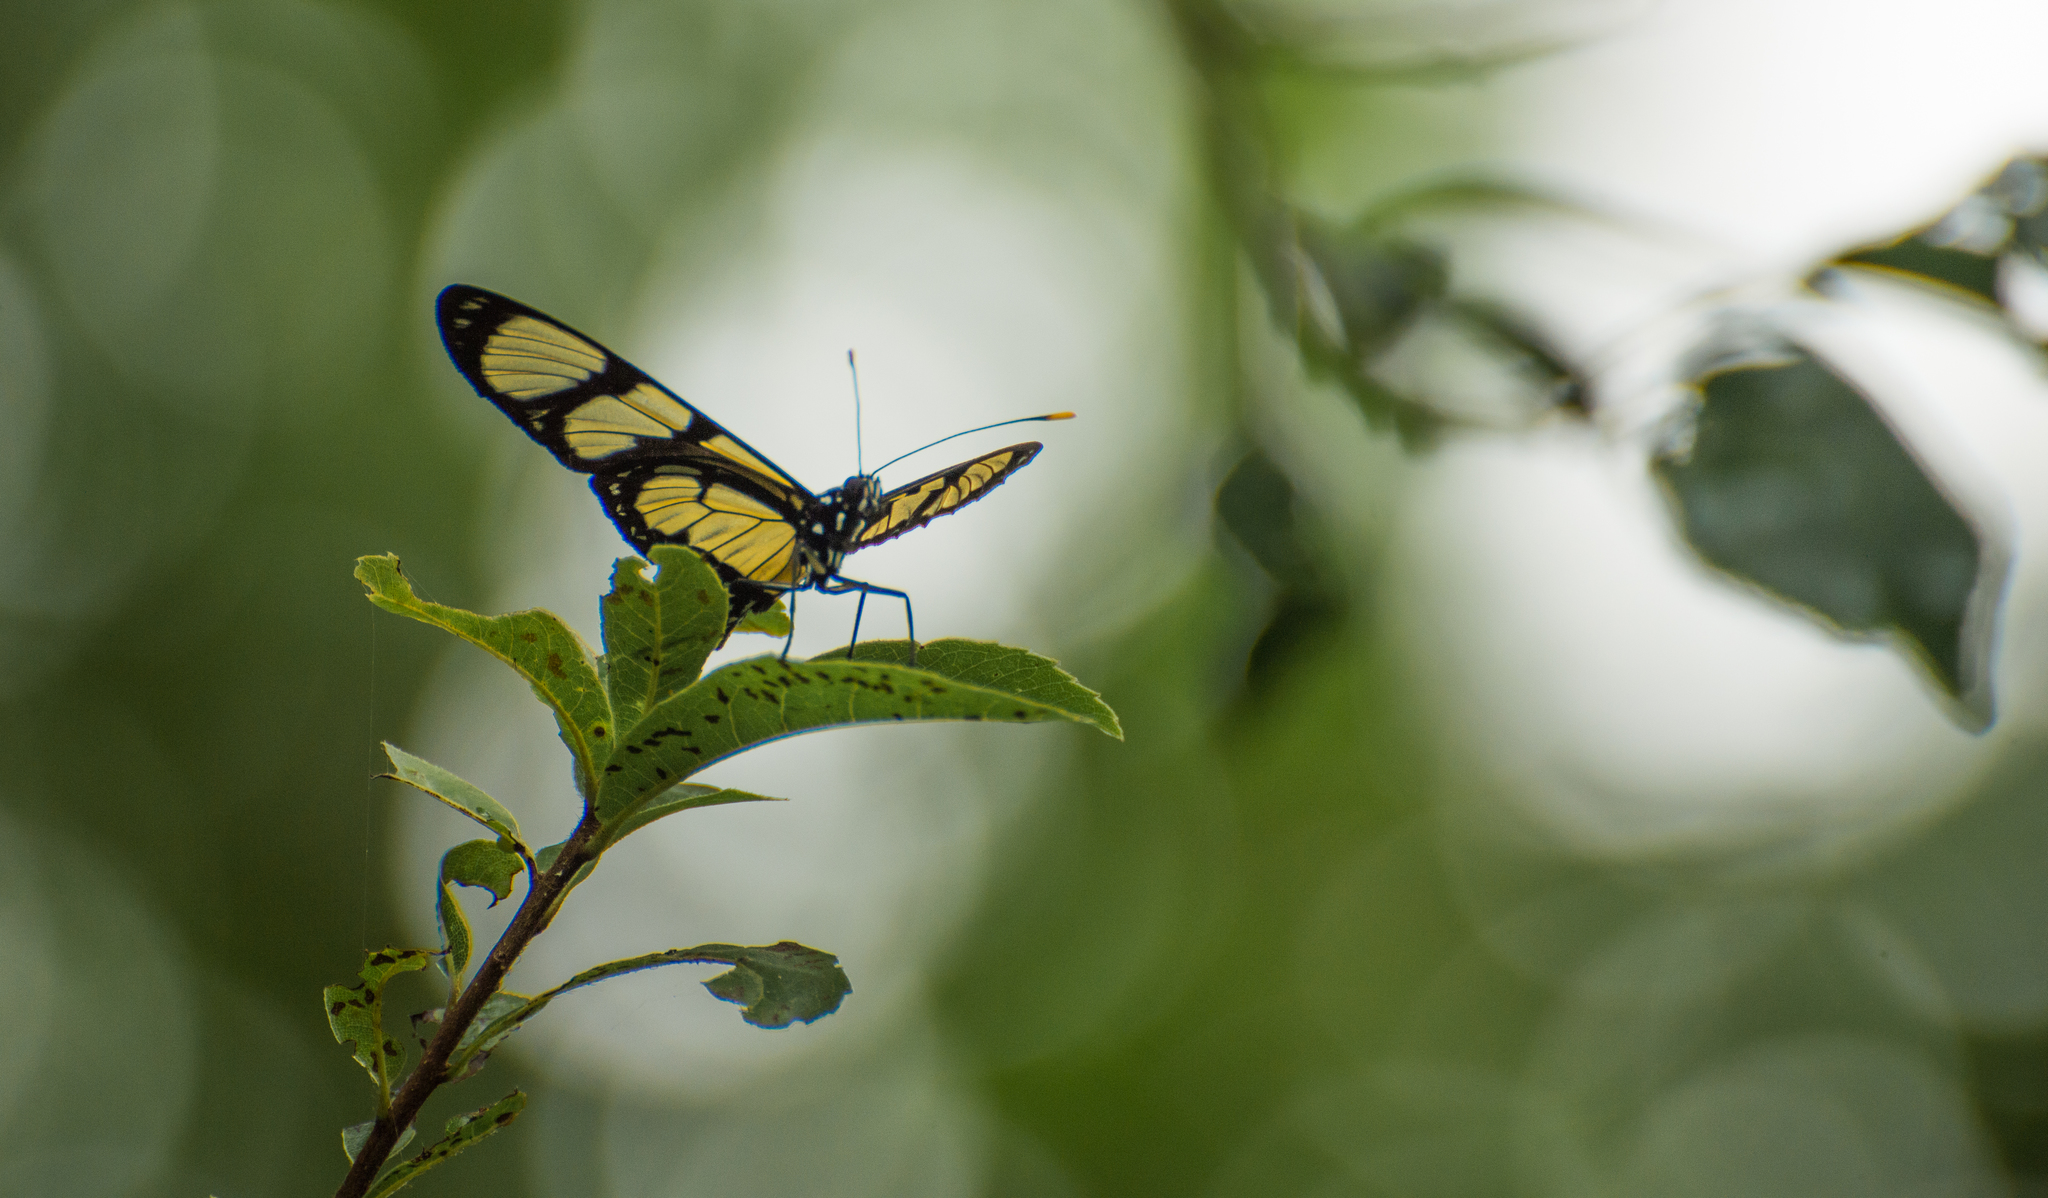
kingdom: Animalia
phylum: Arthropoda
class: Insecta
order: Lepidoptera
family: Nymphalidae
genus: Methona
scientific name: Methona themisto
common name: Themisto amberwing
